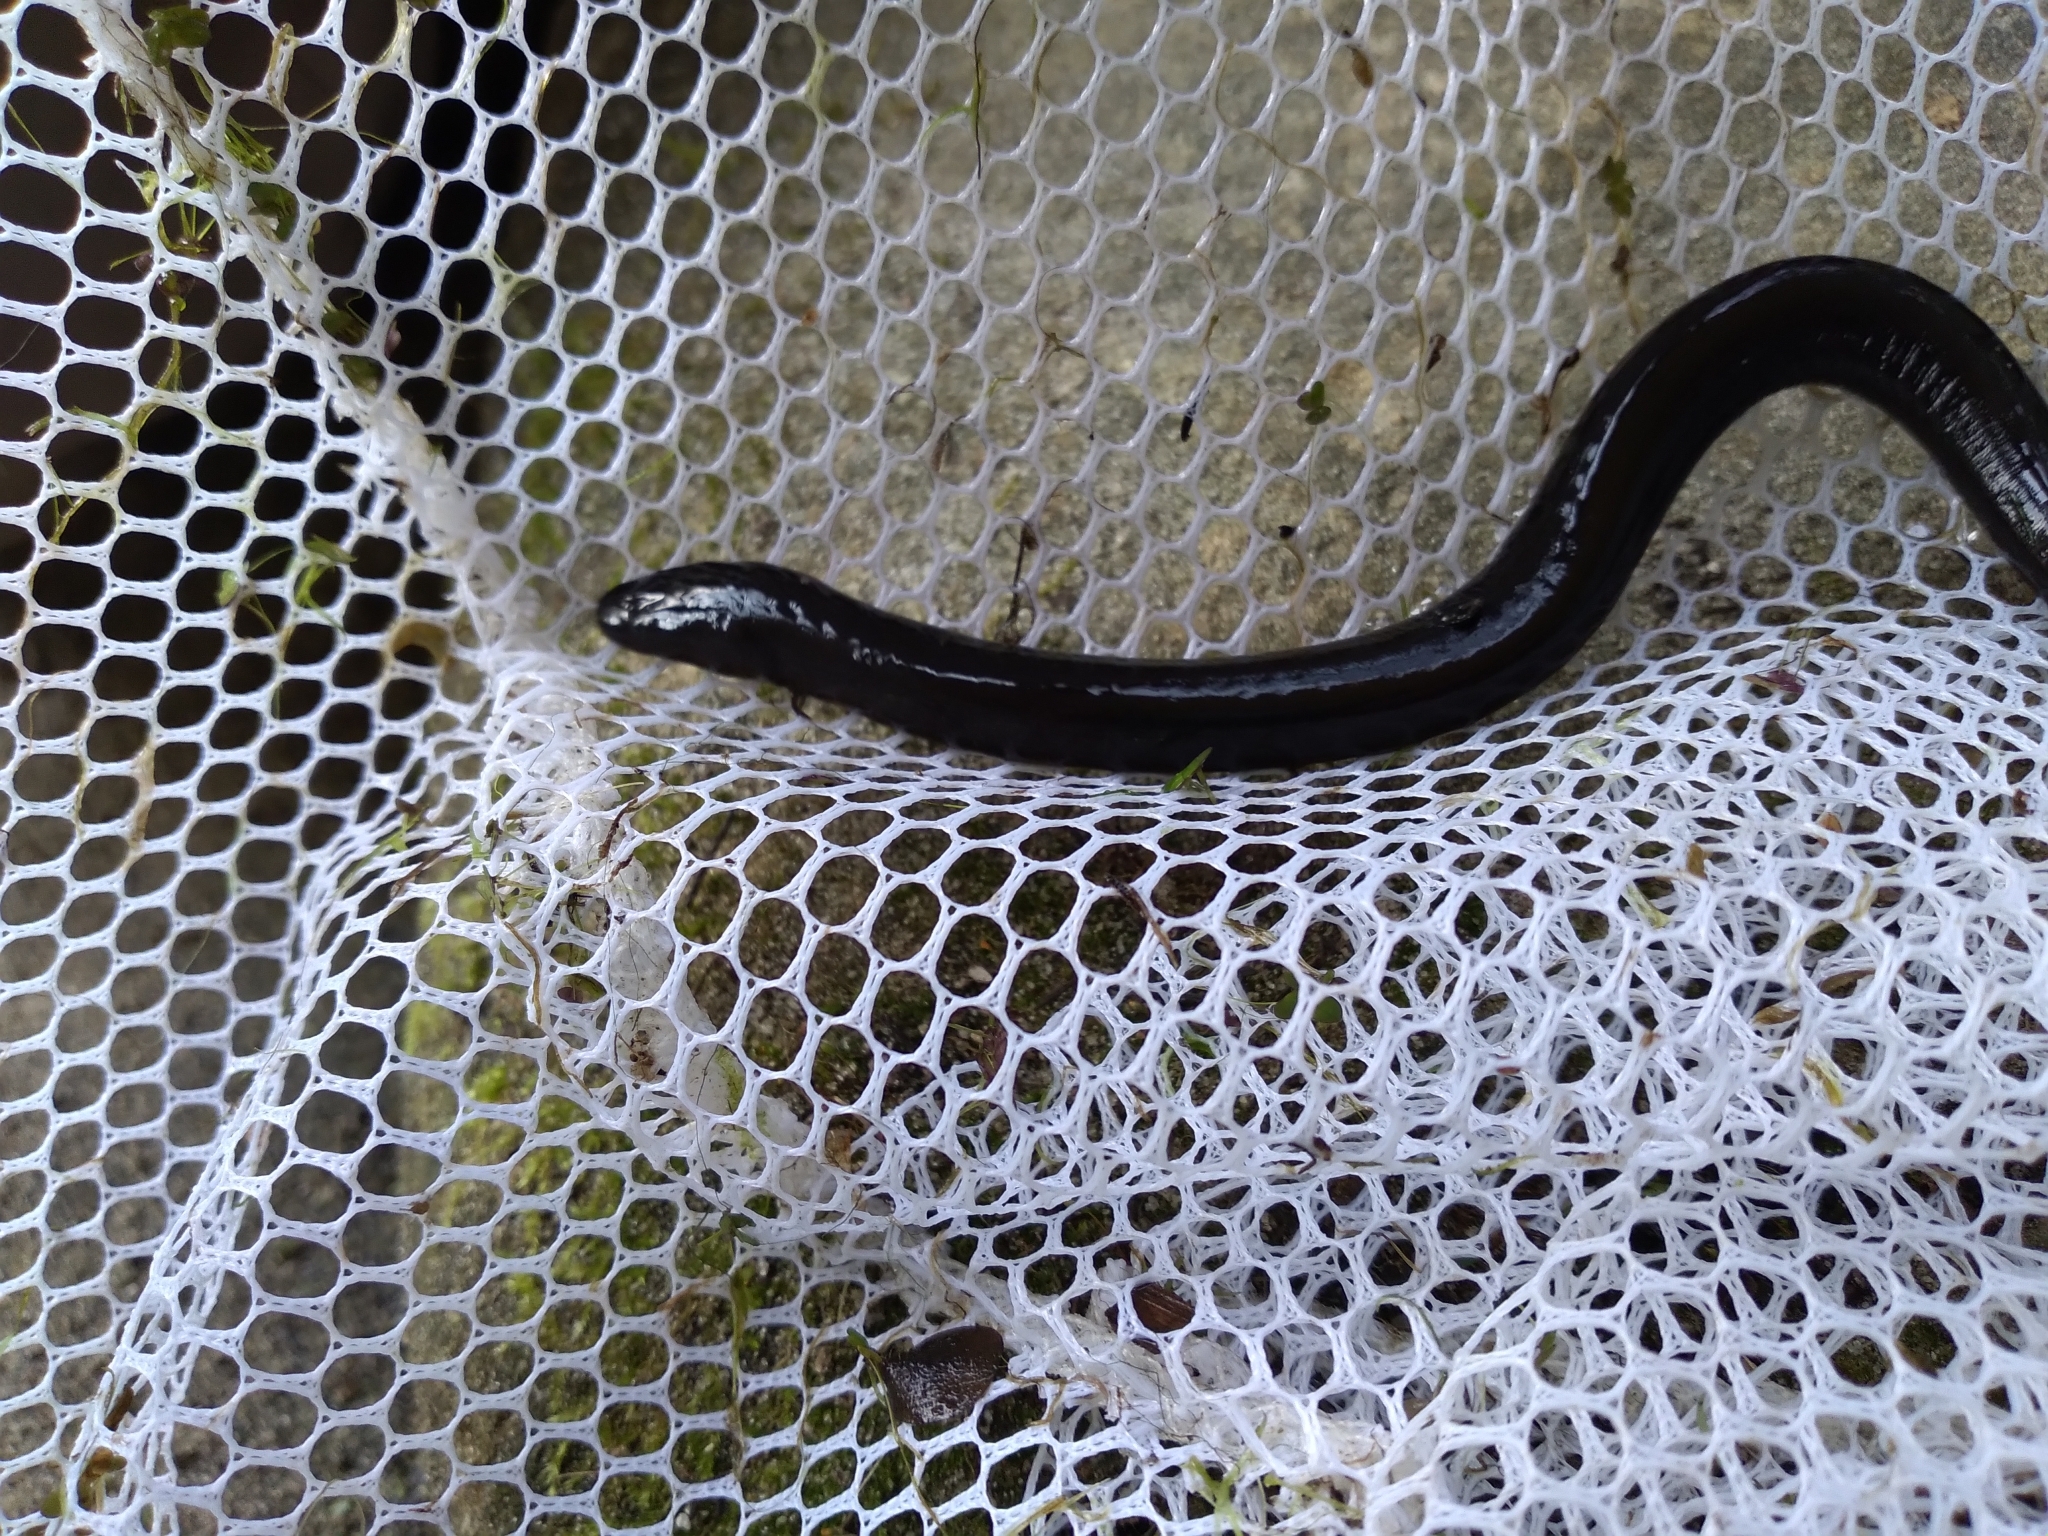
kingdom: Animalia
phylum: Chordata
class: Amphibia
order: Caudata
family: Amphiumidae
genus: Amphiuma
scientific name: Amphiuma means
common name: Two-toed amphiuma
